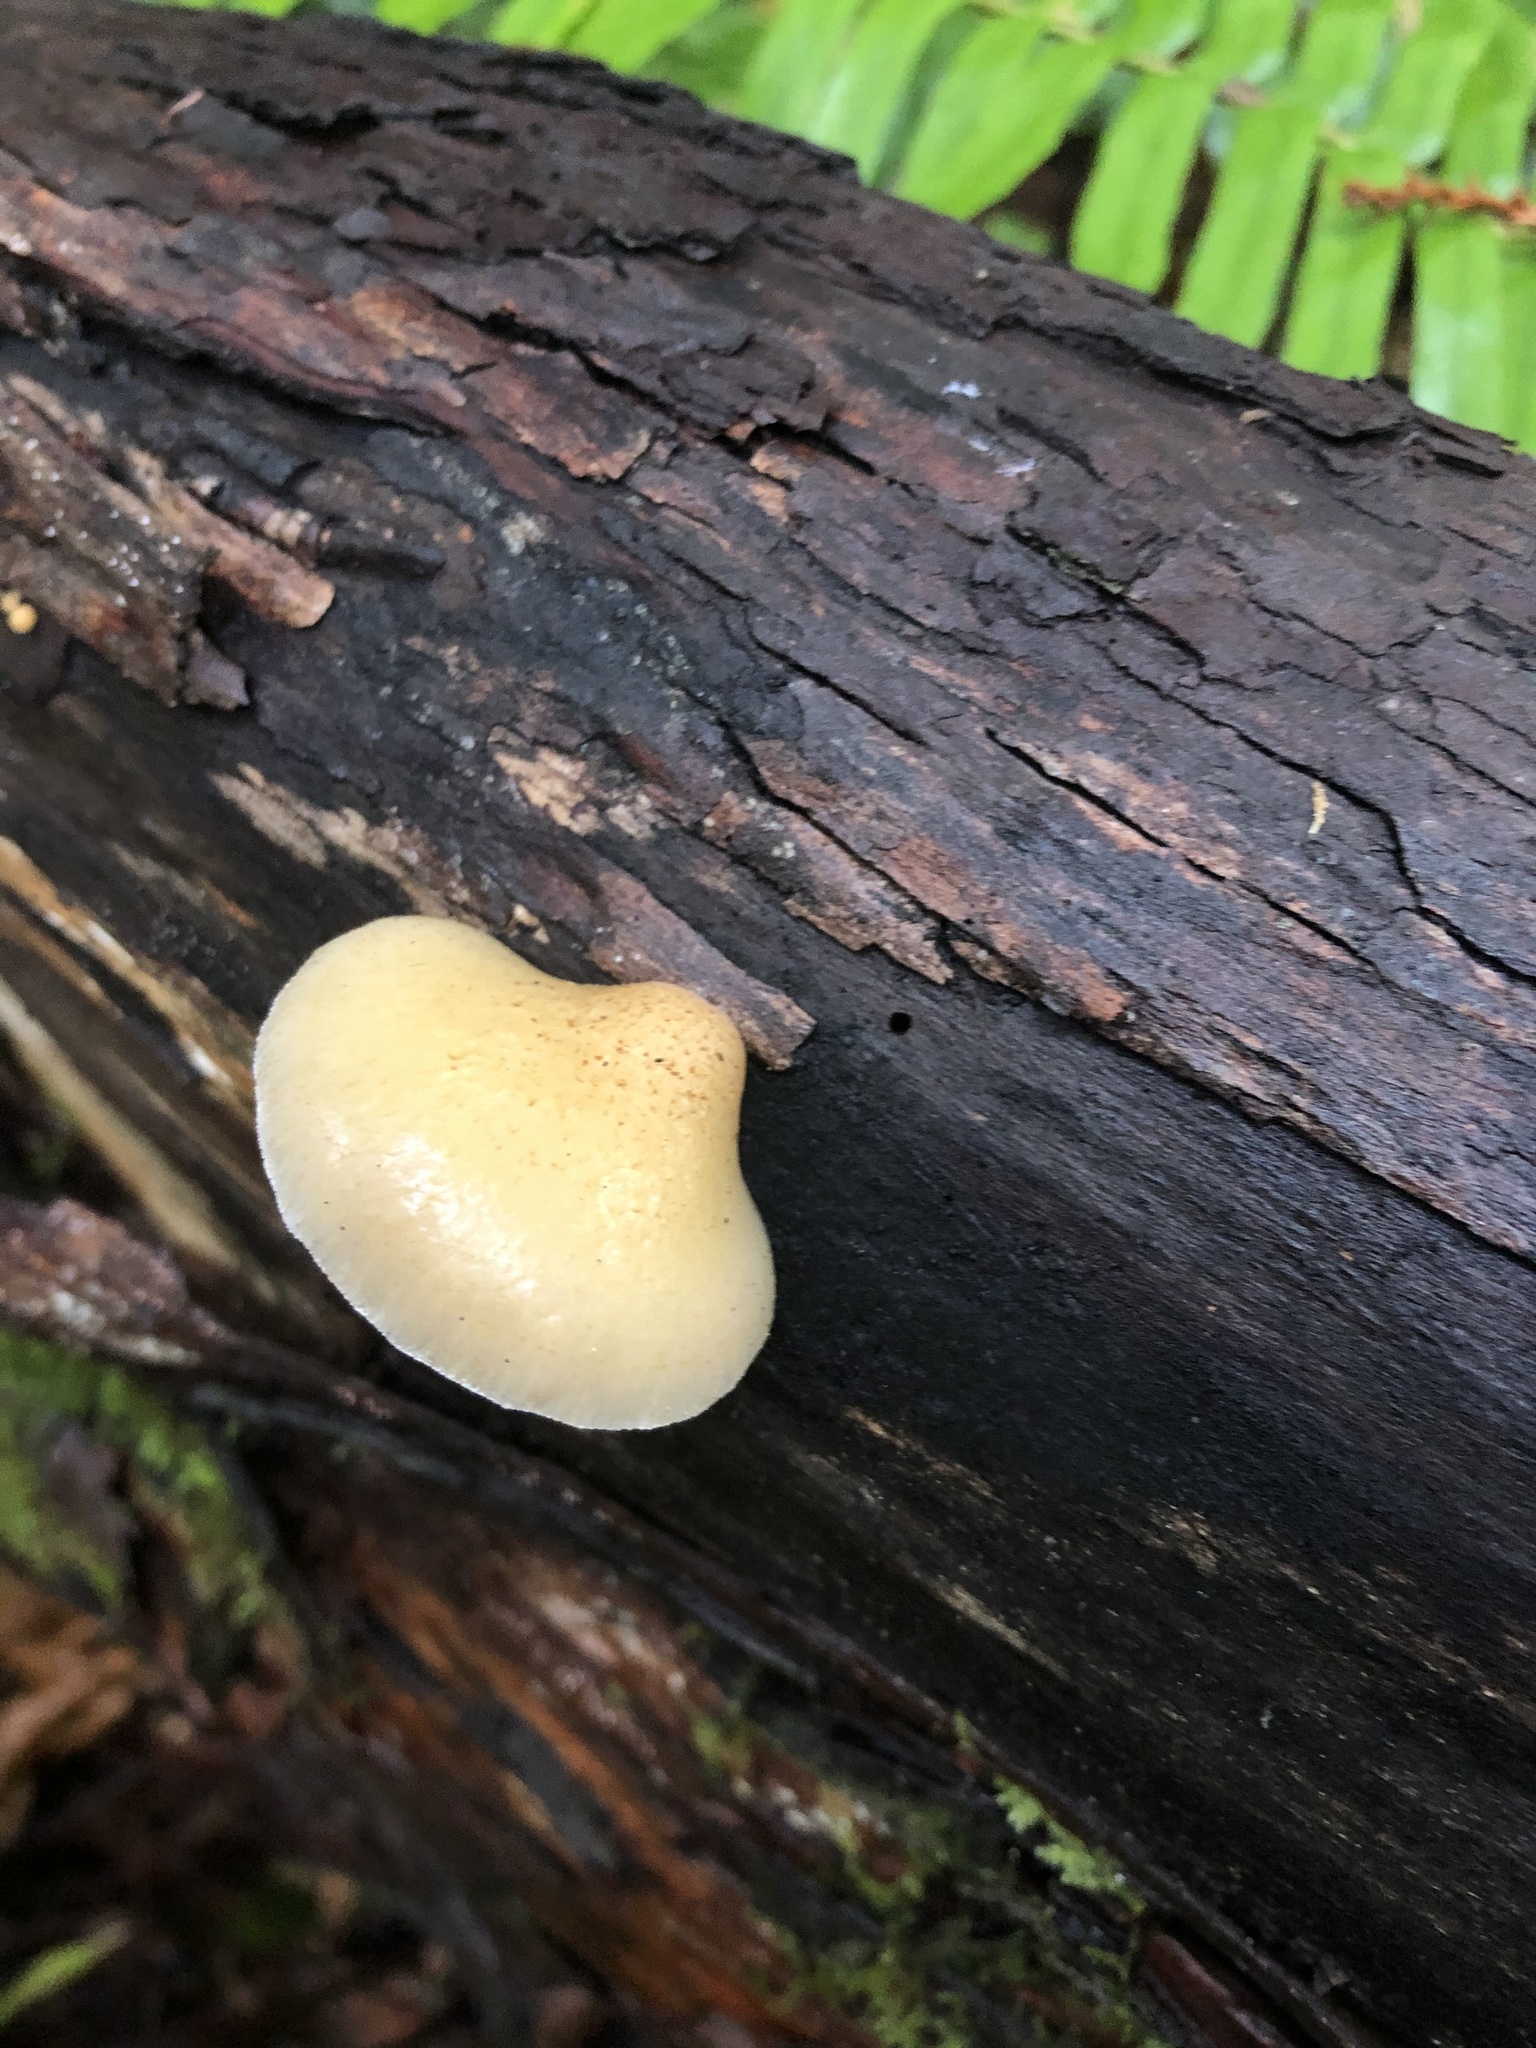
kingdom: Fungi
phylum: Basidiomycota
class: Agaricomycetes
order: Agaricales
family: Crepidotaceae
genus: Crepidotus
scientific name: Crepidotus mollis
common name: Peeling oysterling
